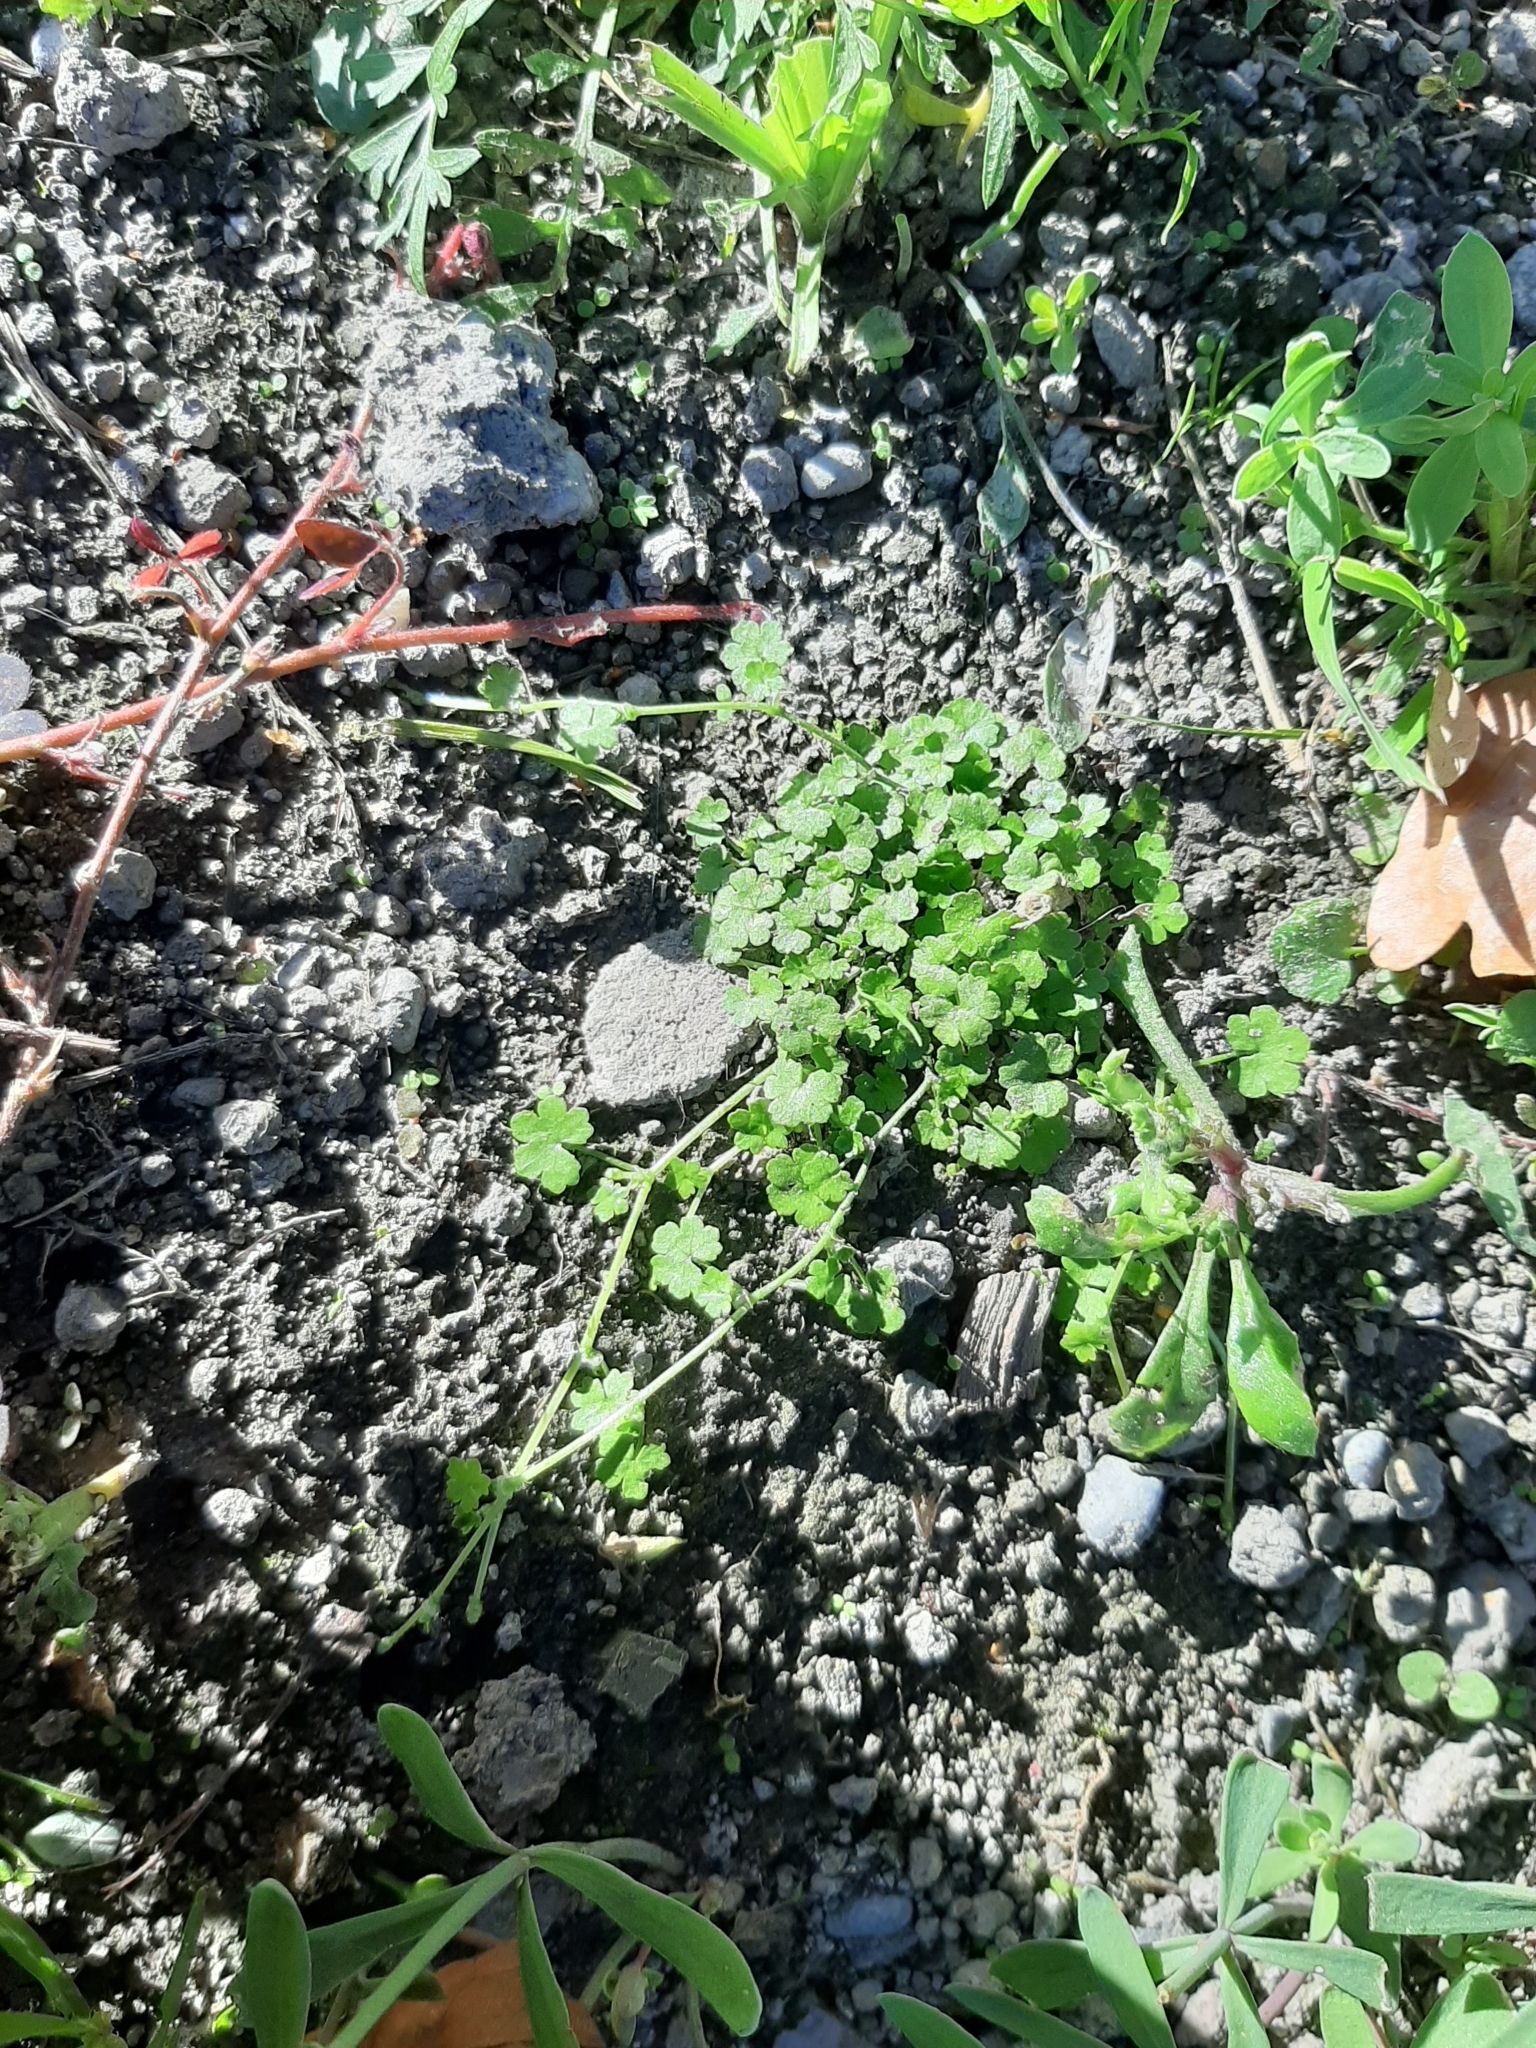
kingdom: Plantae
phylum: Tracheophyta
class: Magnoliopsida
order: Apiales
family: Araliaceae
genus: Hydrocotyle
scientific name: Hydrocotyle heteromeria
